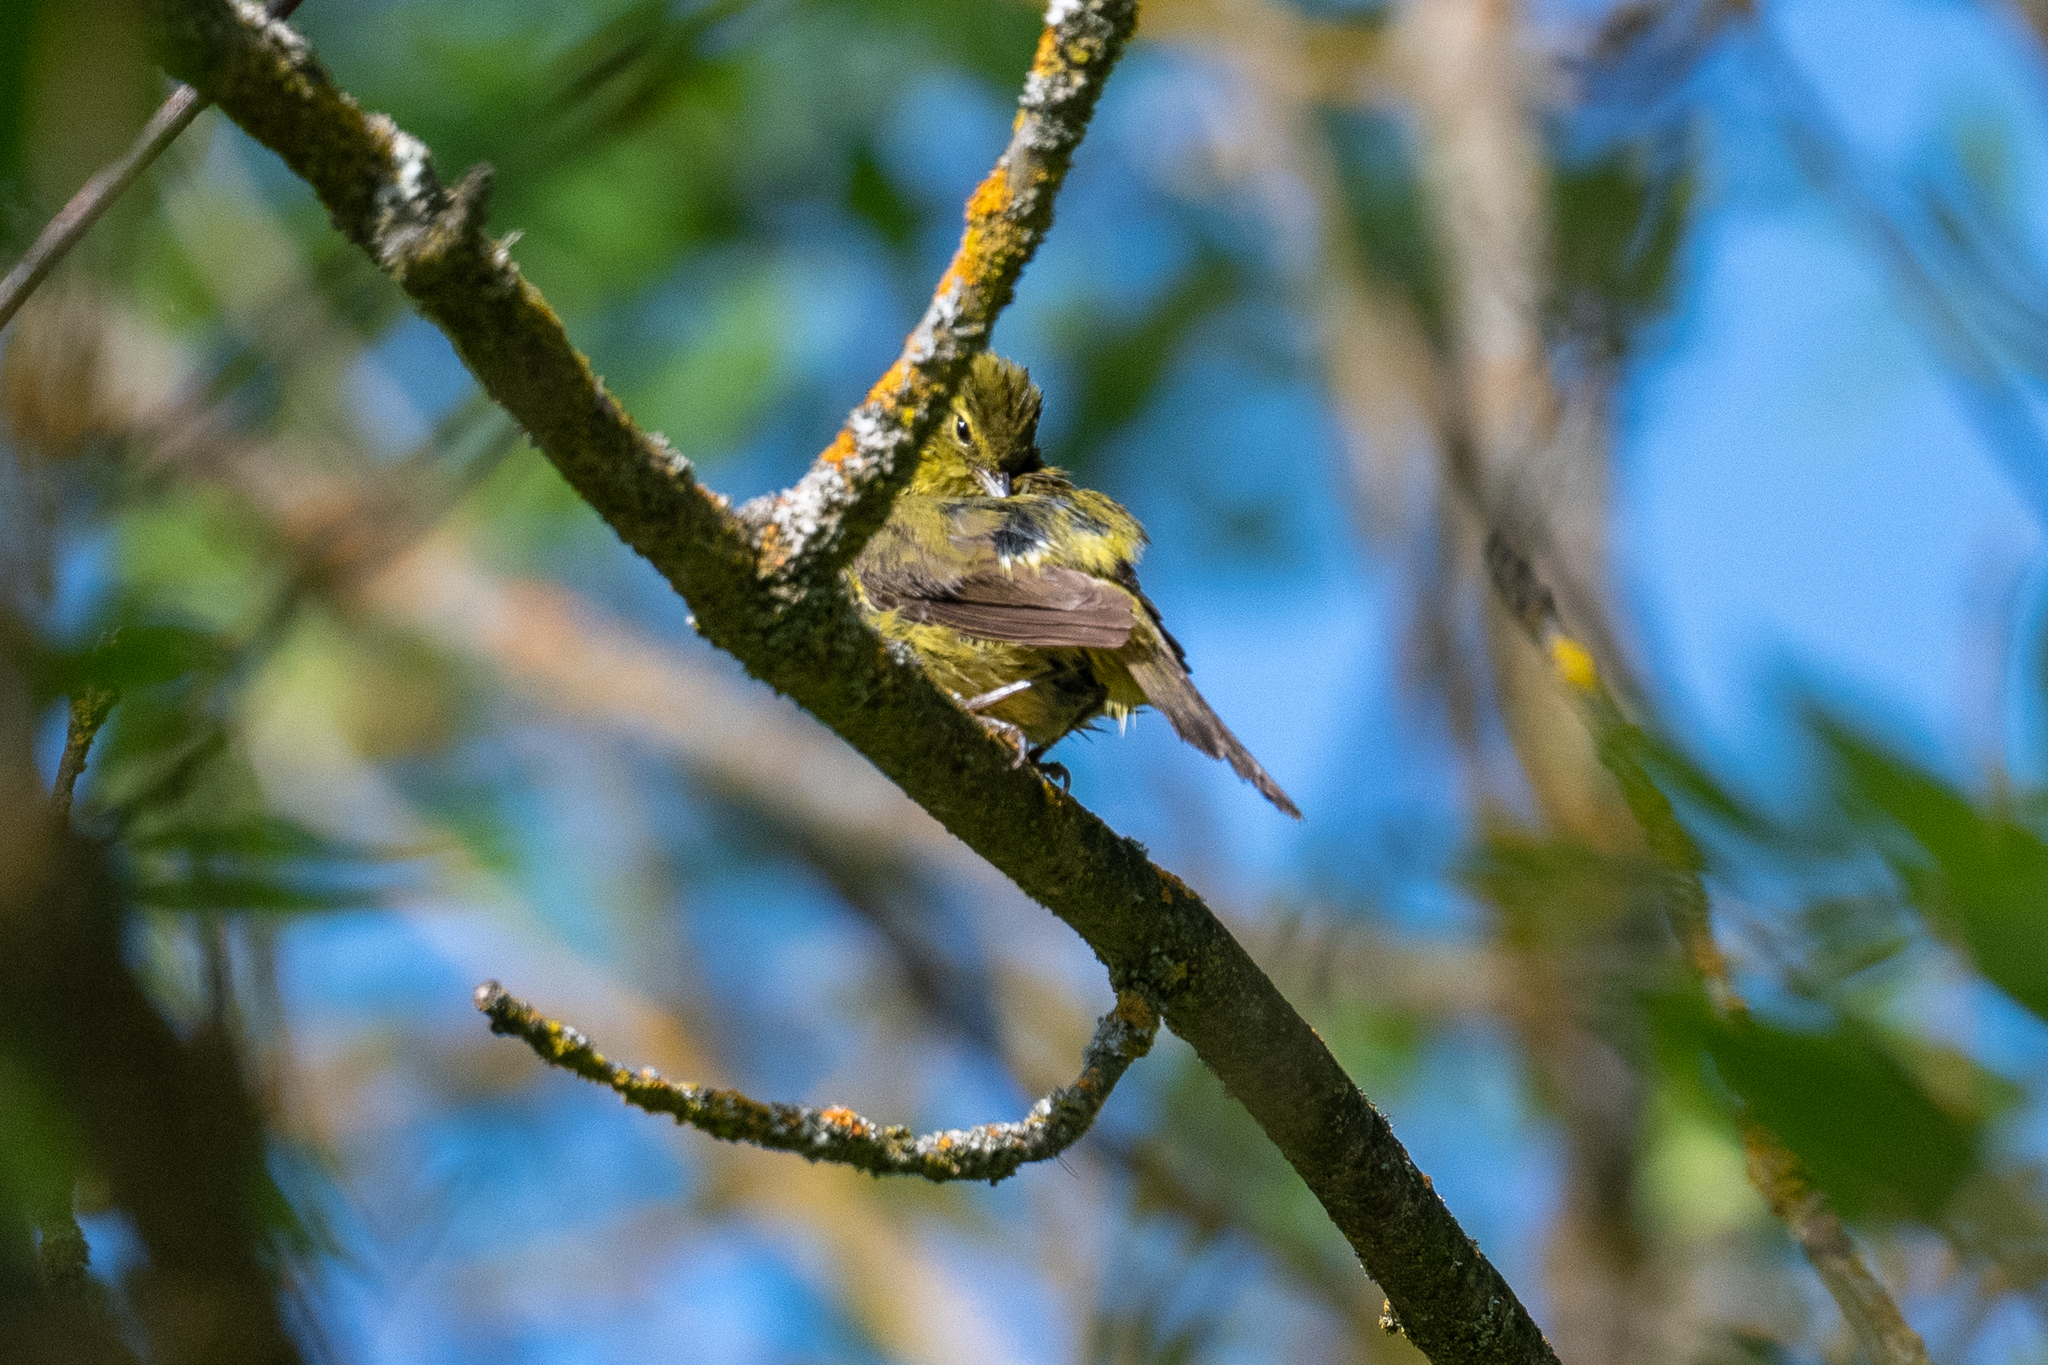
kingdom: Animalia
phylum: Chordata
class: Aves
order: Passeriformes
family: Parulidae
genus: Leiothlypis
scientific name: Leiothlypis celata
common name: Orange-crowned warbler
